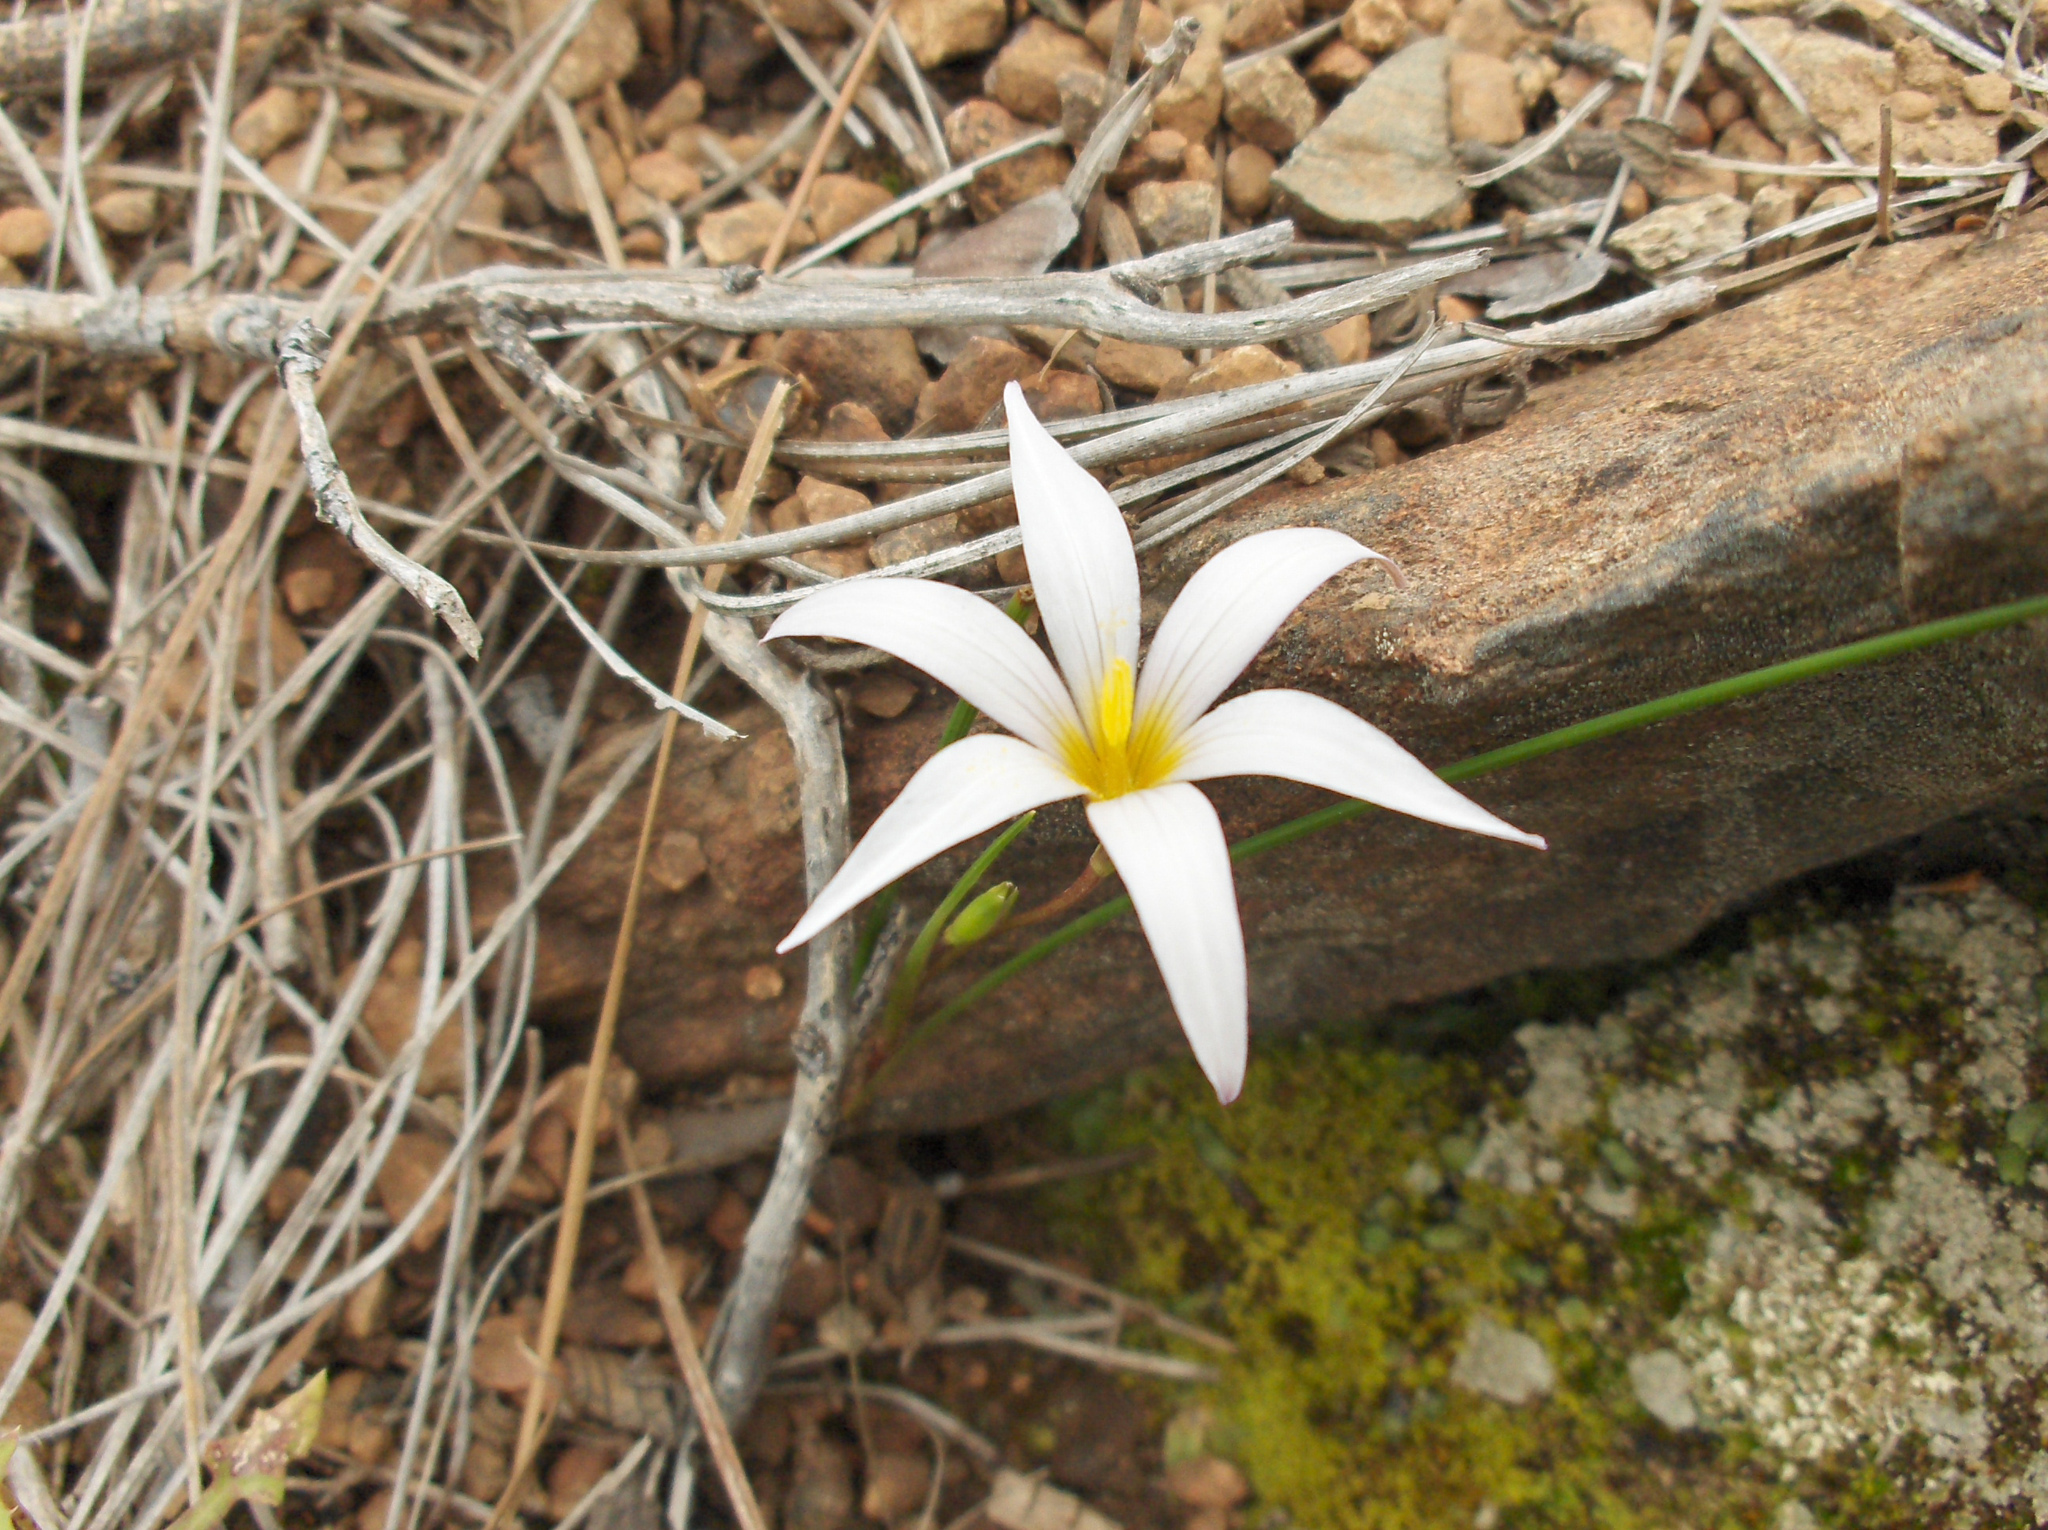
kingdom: Plantae
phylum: Tracheophyta
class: Liliopsida
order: Asparagales
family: Iridaceae
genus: Romulea
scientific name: Romulea columnae
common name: Sand-crocus
